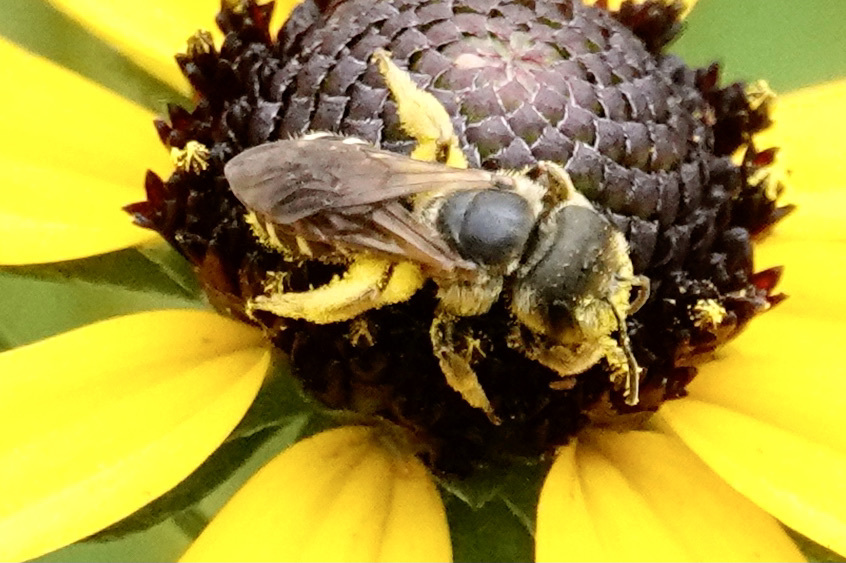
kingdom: Animalia
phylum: Arthropoda
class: Insecta
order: Hymenoptera
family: Halictidae
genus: Halictus
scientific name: Halictus ligatus
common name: Ligated furrow bee
